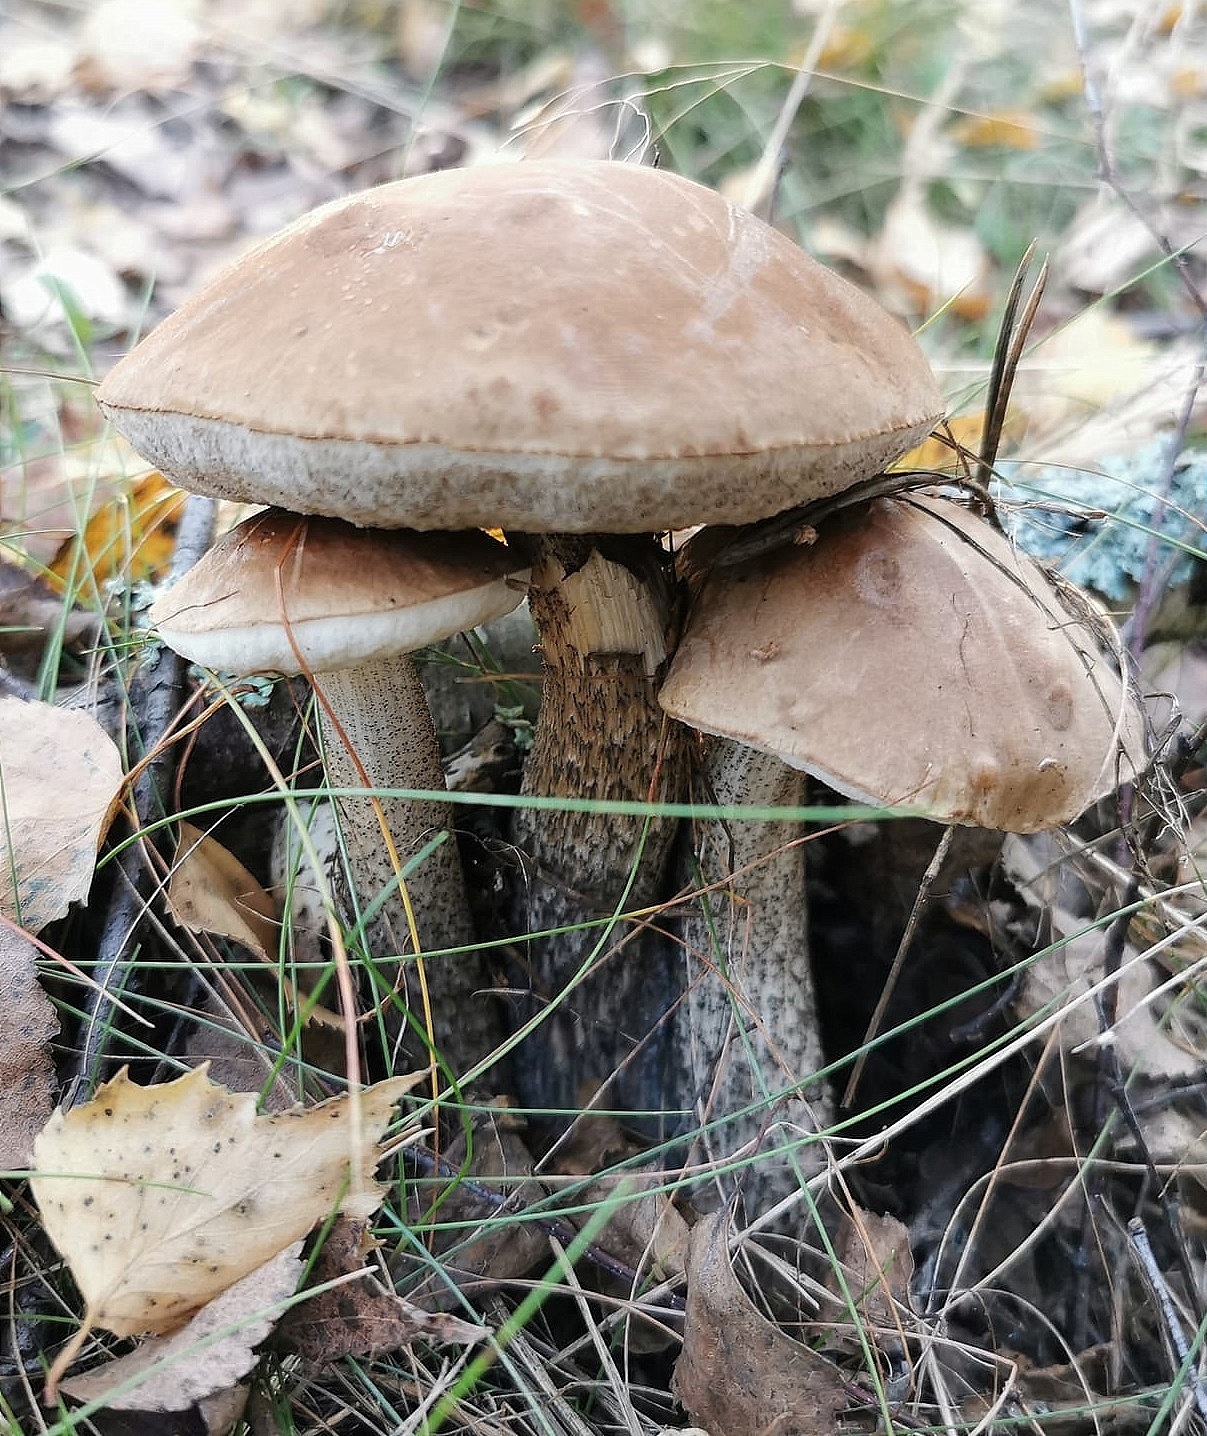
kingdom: Fungi
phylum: Basidiomycota
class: Agaricomycetes
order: Boletales
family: Boletaceae
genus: Leccinum
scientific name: Leccinum scabrum
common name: Blushing bolete
